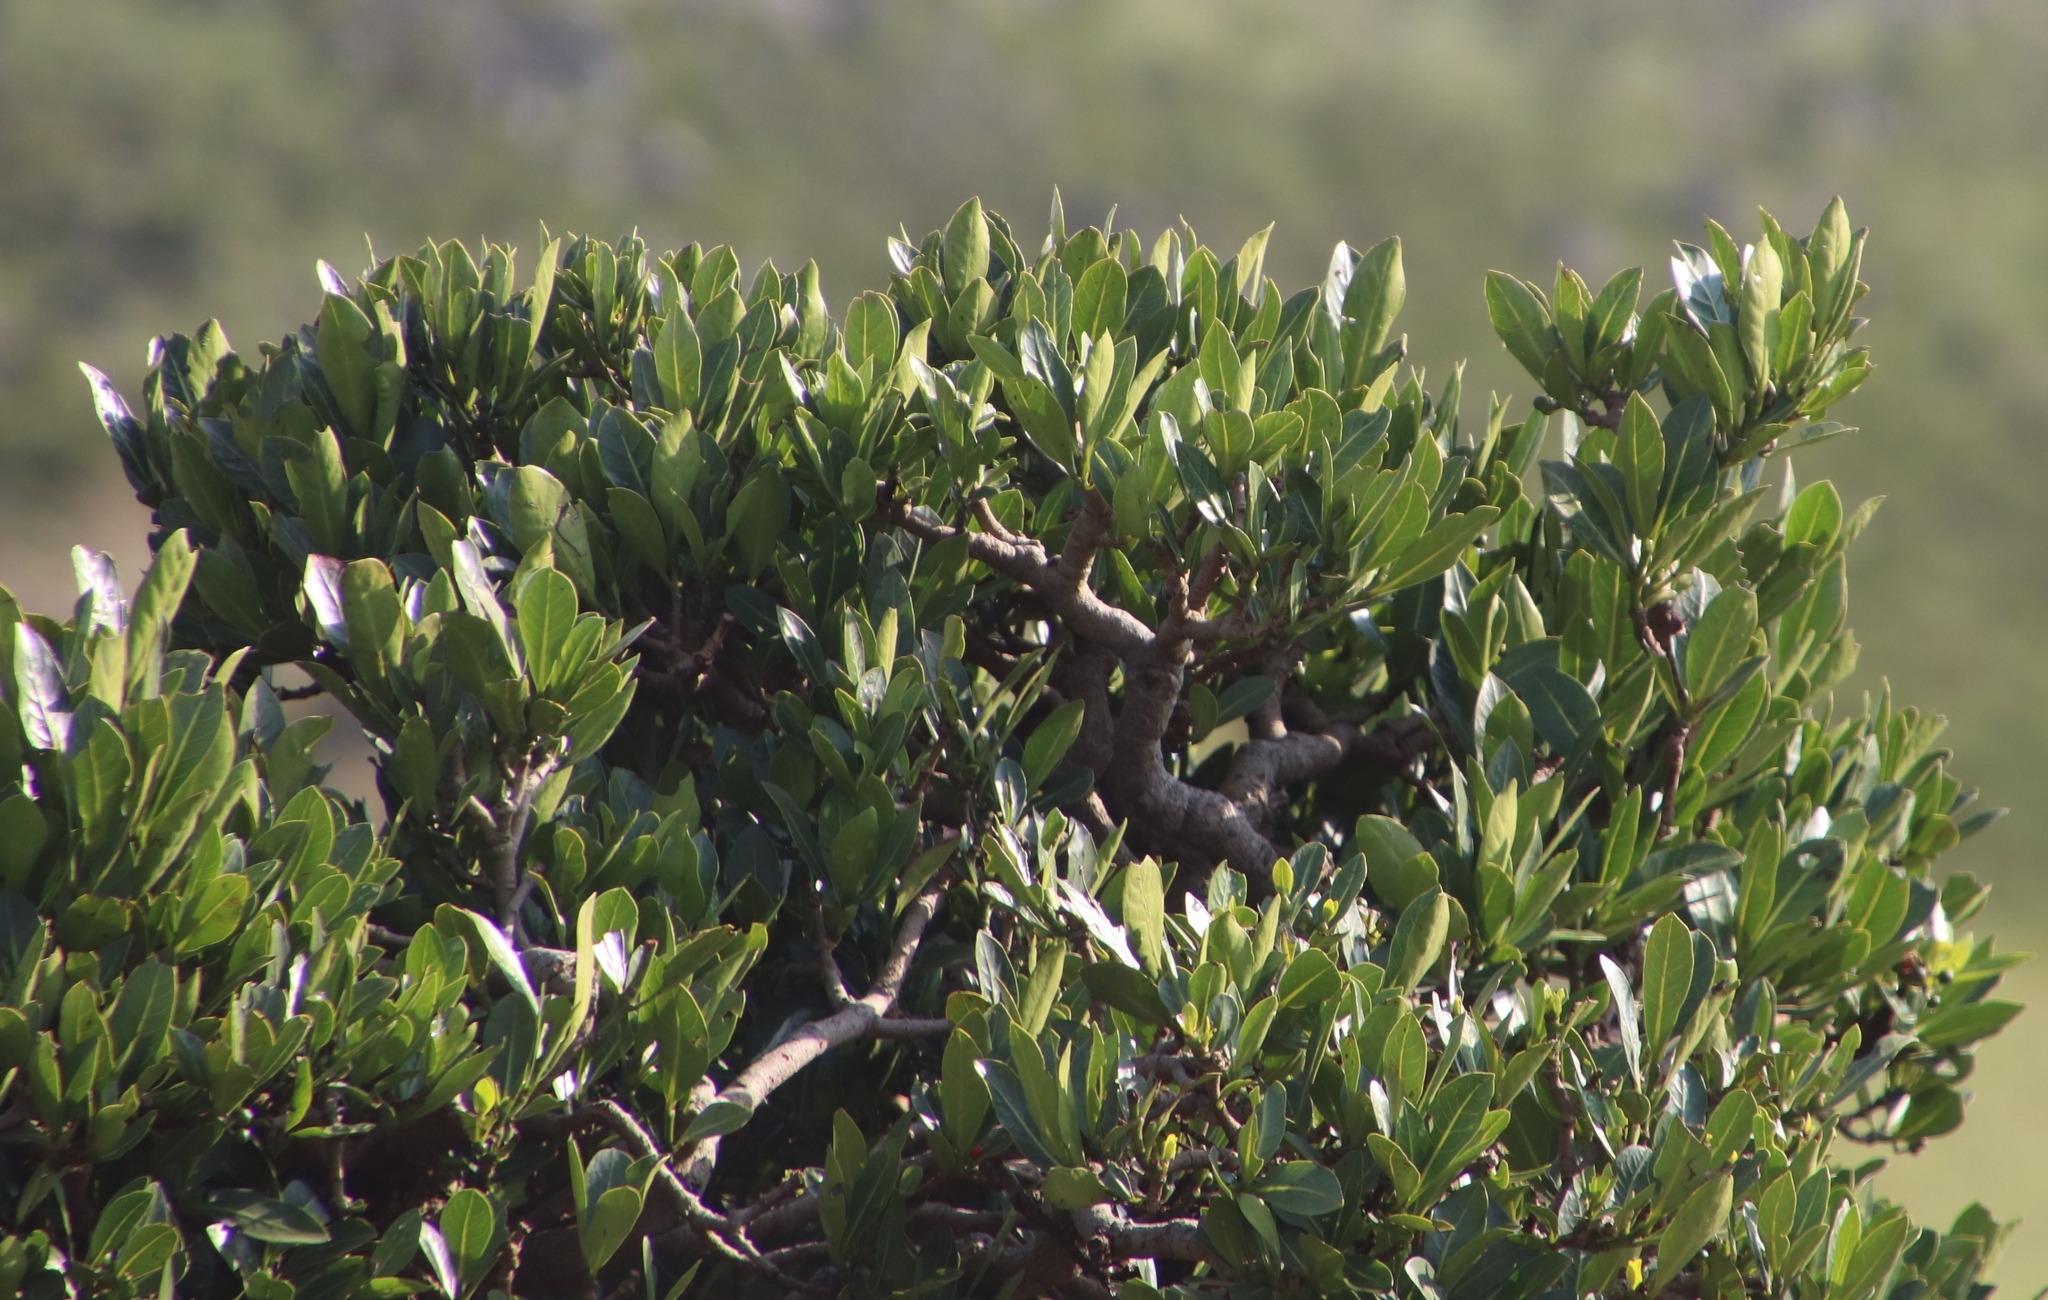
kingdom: Plantae
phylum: Tracheophyta
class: Magnoliopsida
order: Gentianales
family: Rubiaceae
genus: Psychotria
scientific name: Psychotria
